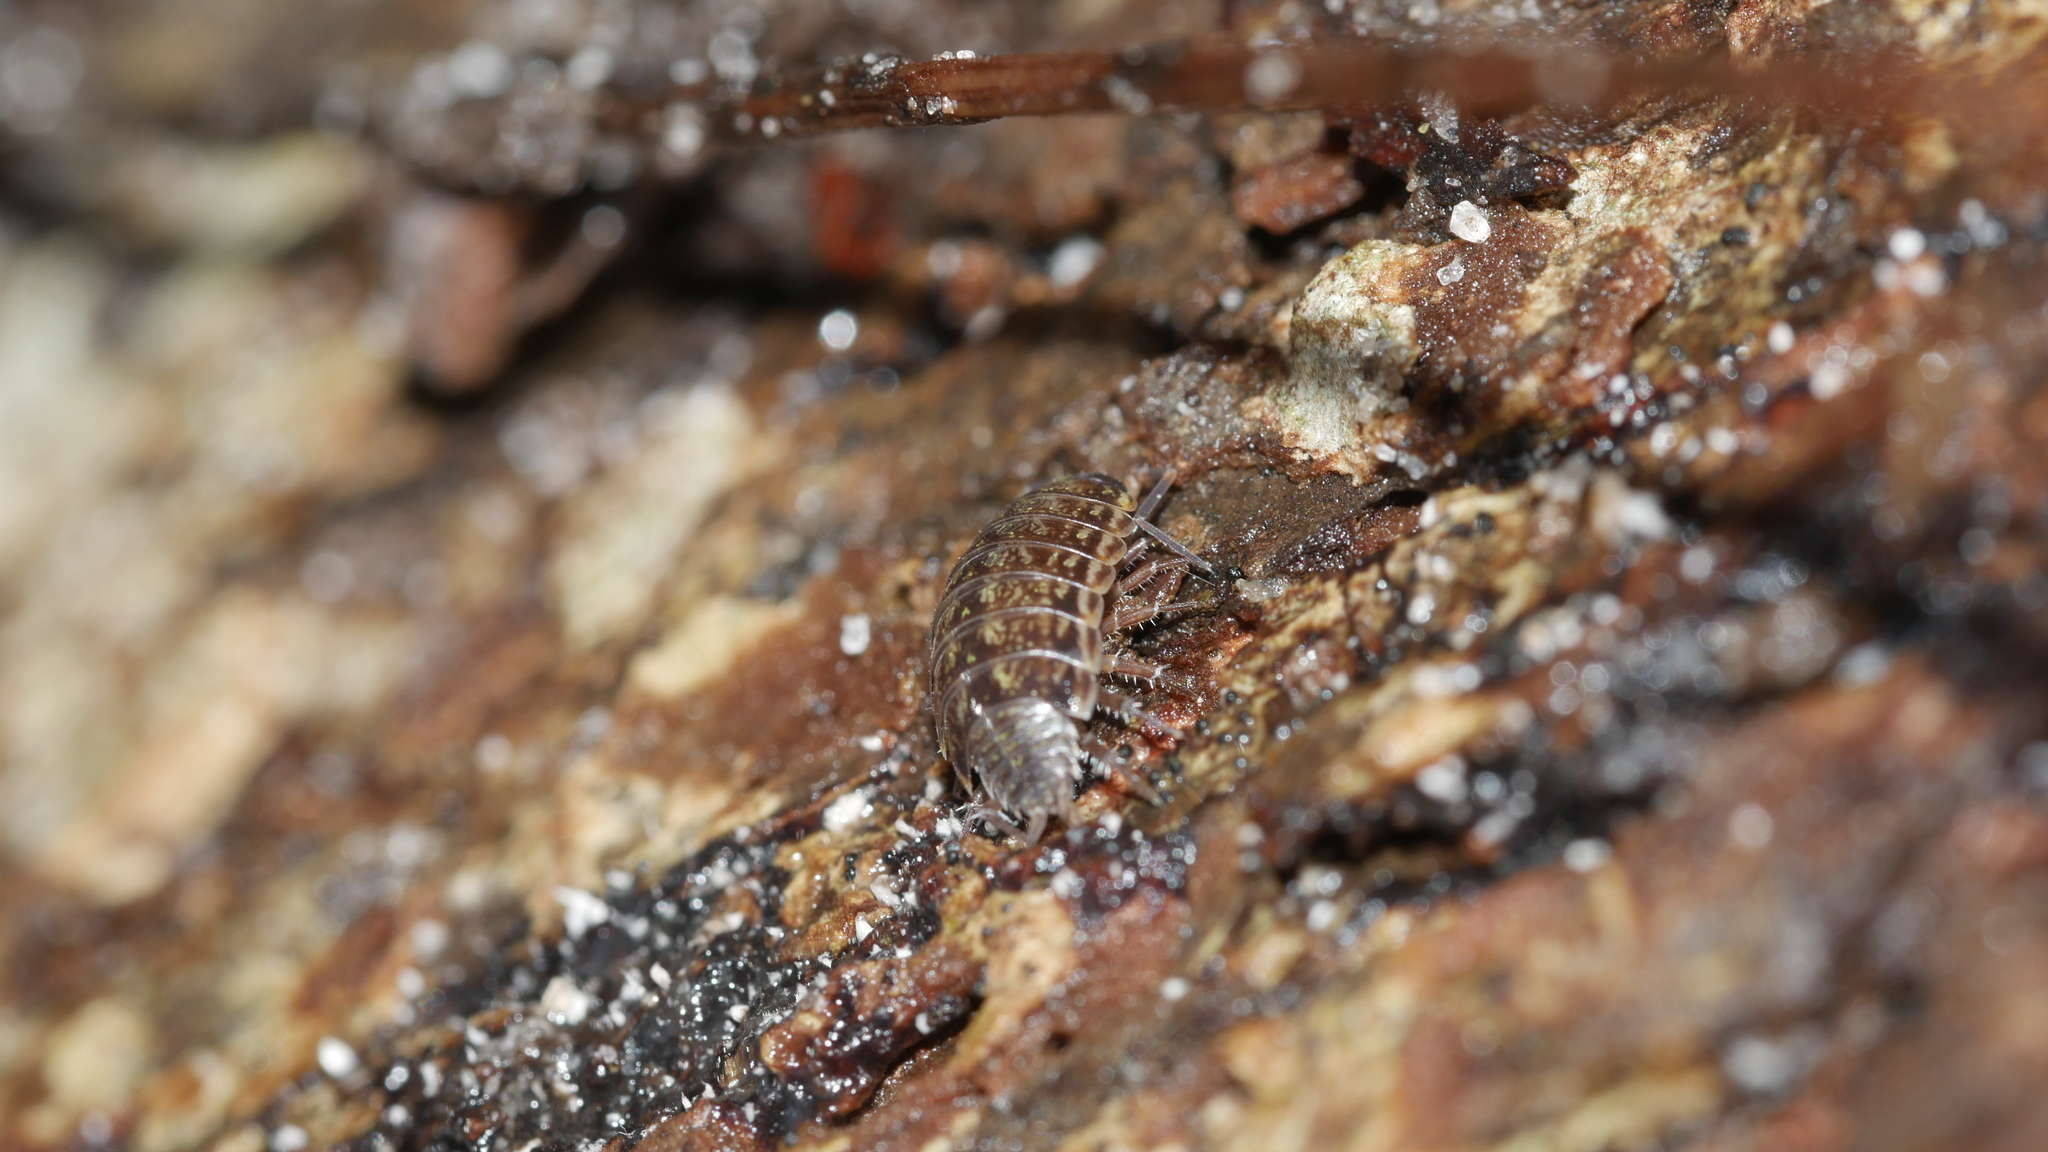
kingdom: Animalia
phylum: Arthropoda
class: Malacostraca
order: Isopoda
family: Philosciidae
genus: Philoscia
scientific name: Philoscia muscorum
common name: Common striped woodlouse
